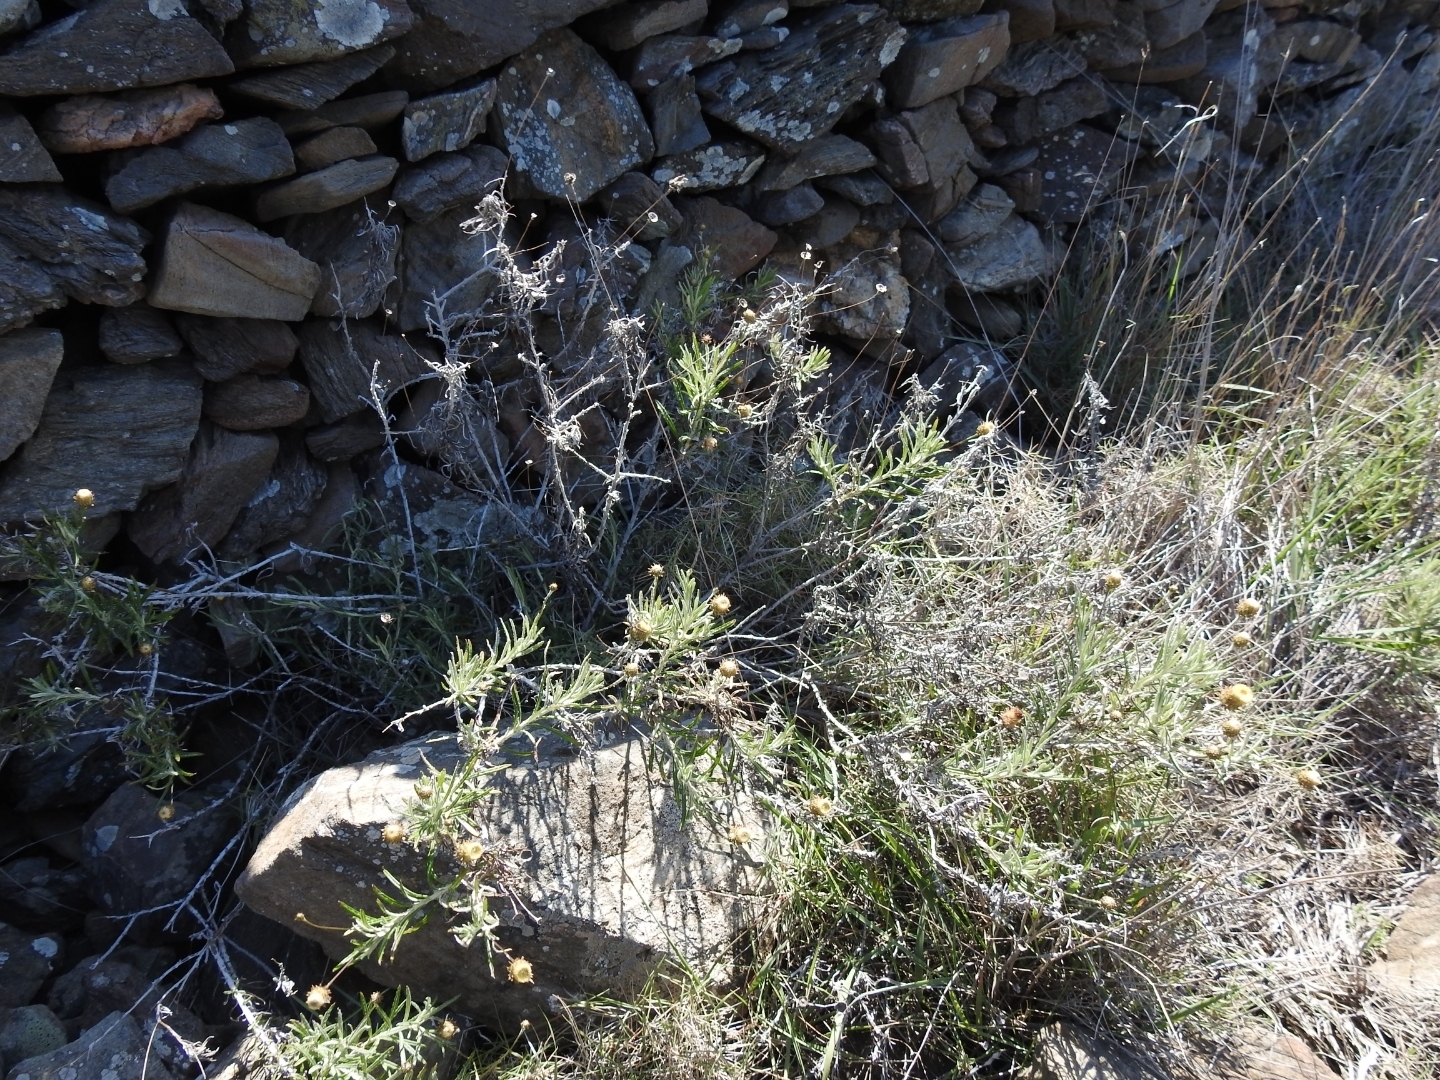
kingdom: Plantae
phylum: Tracheophyta
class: Magnoliopsida
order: Asterales
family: Asteraceae
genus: Phagnalon
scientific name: Phagnalon saxatile
